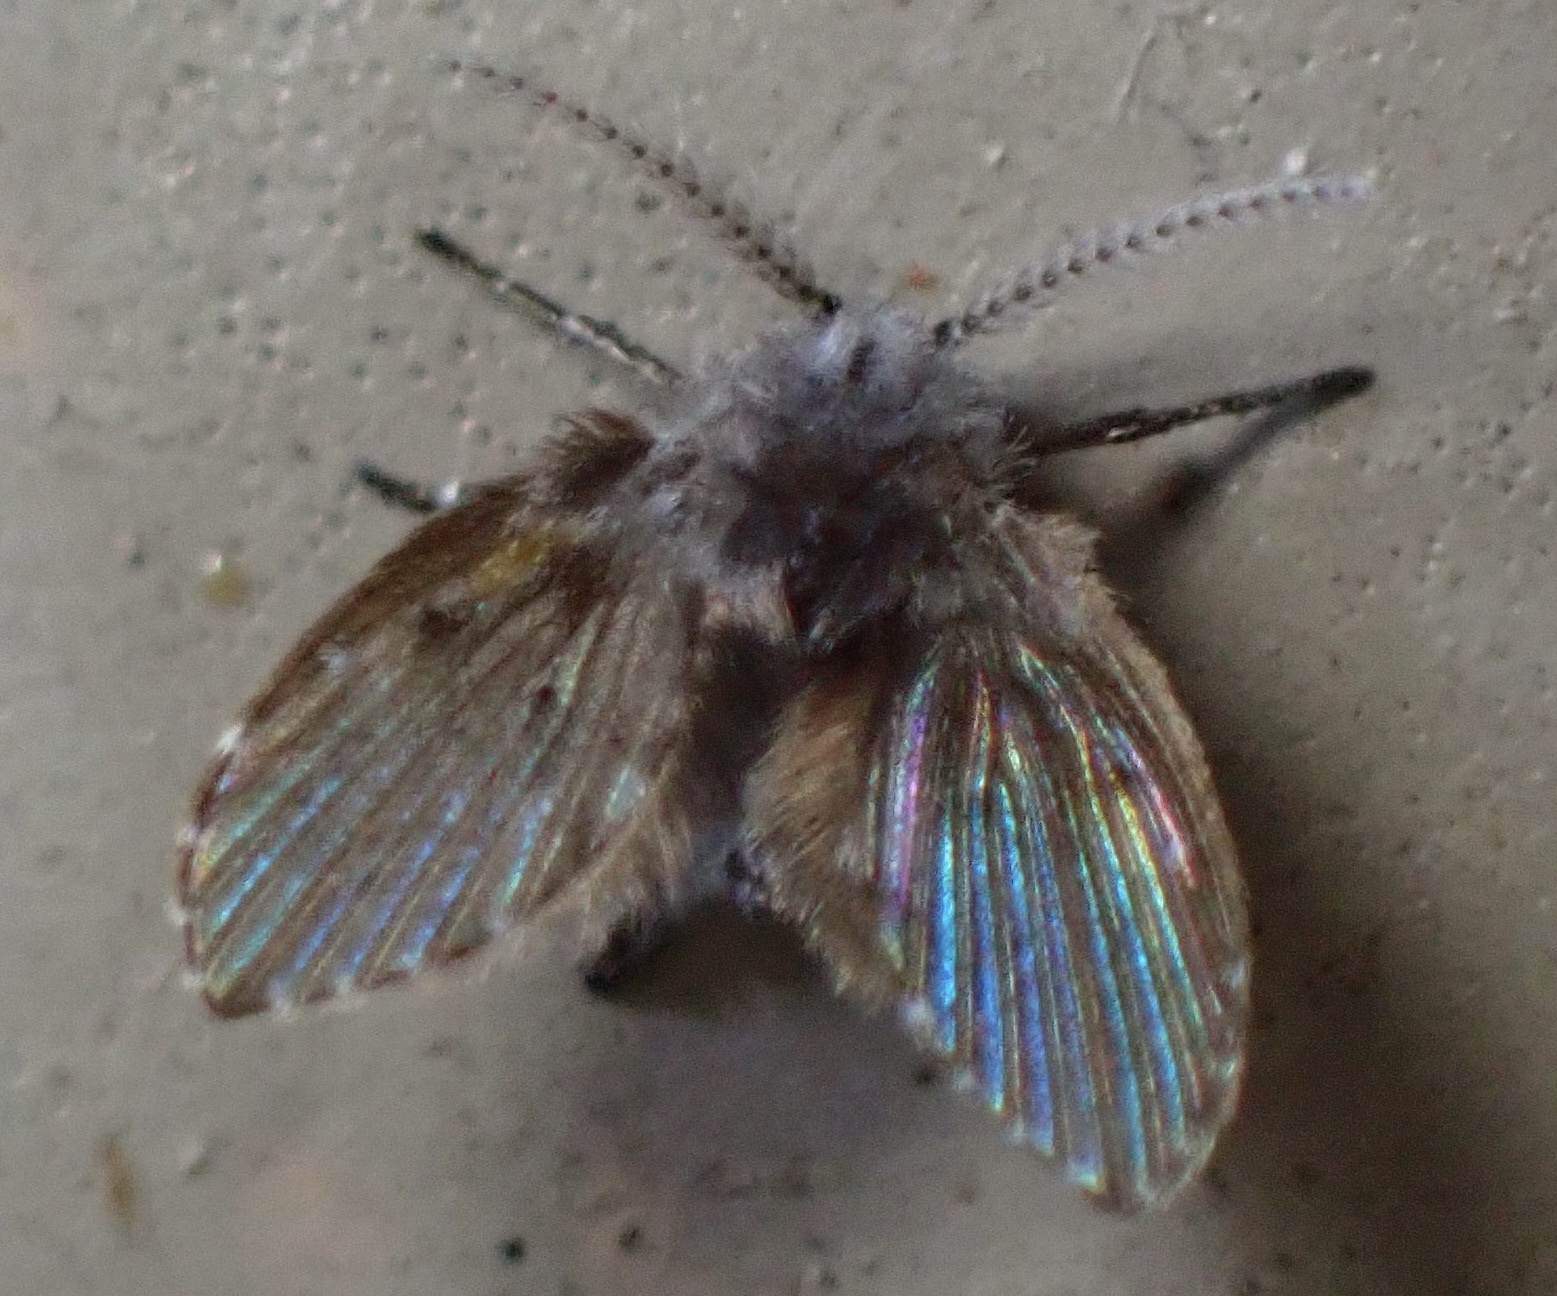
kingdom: Animalia
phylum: Arthropoda
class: Insecta
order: Diptera
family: Psychodidae
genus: Clogmia
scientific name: Clogmia albipunctatus
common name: White-spotted moth fly
